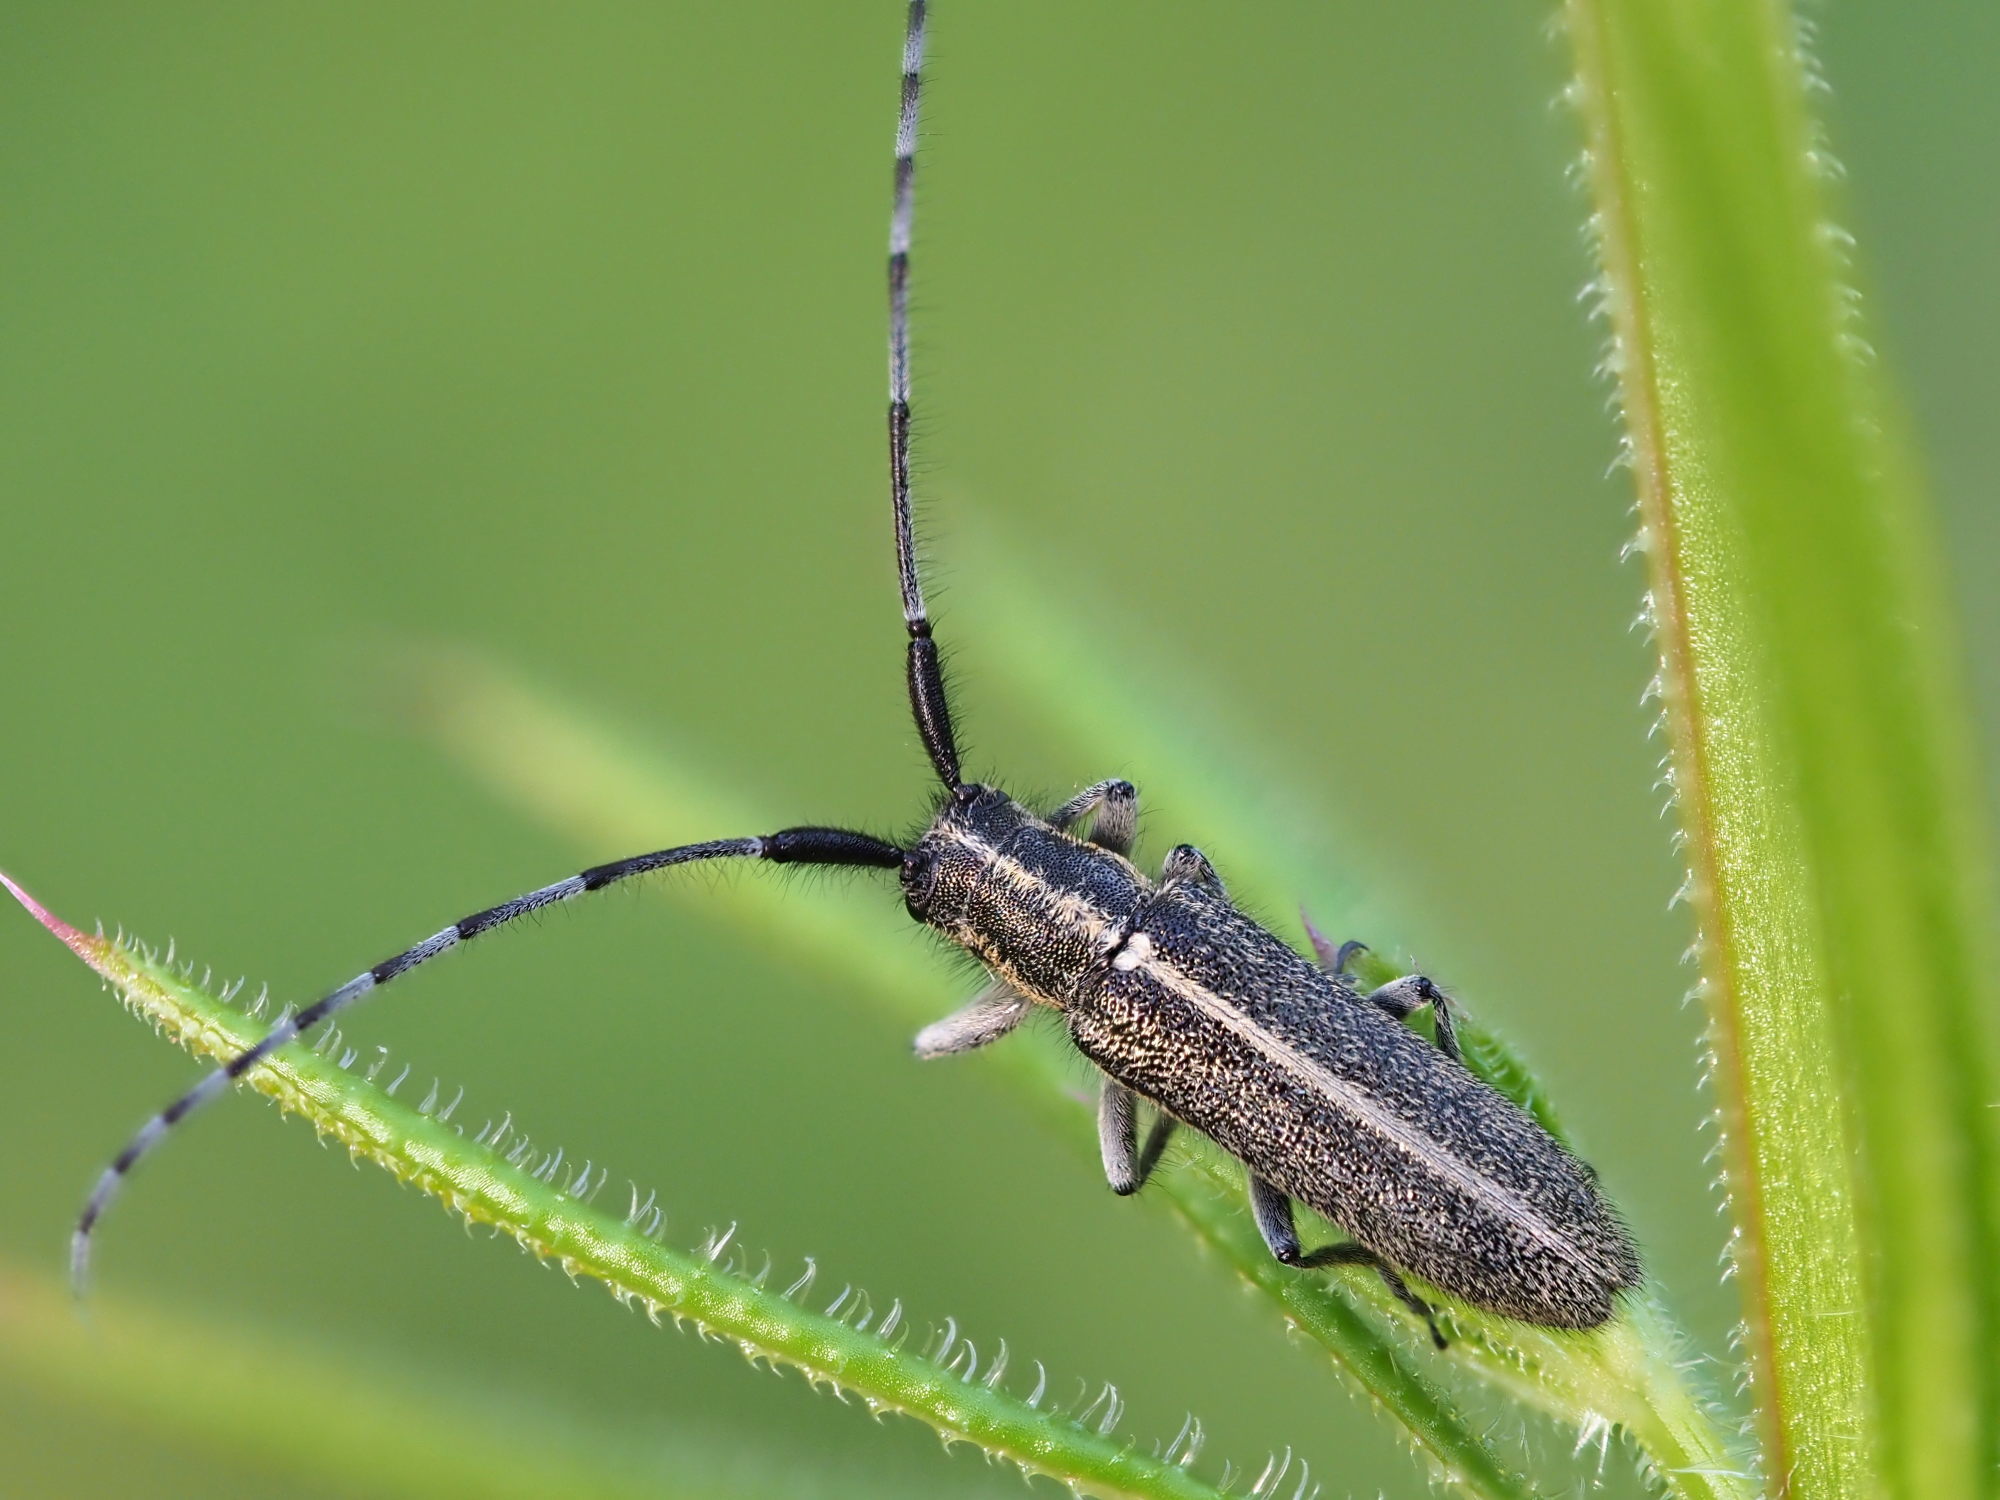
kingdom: Animalia
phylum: Arthropoda
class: Insecta
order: Coleoptera
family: Cerambycidae
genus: Agapanthia
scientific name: Agapanthia cardui
